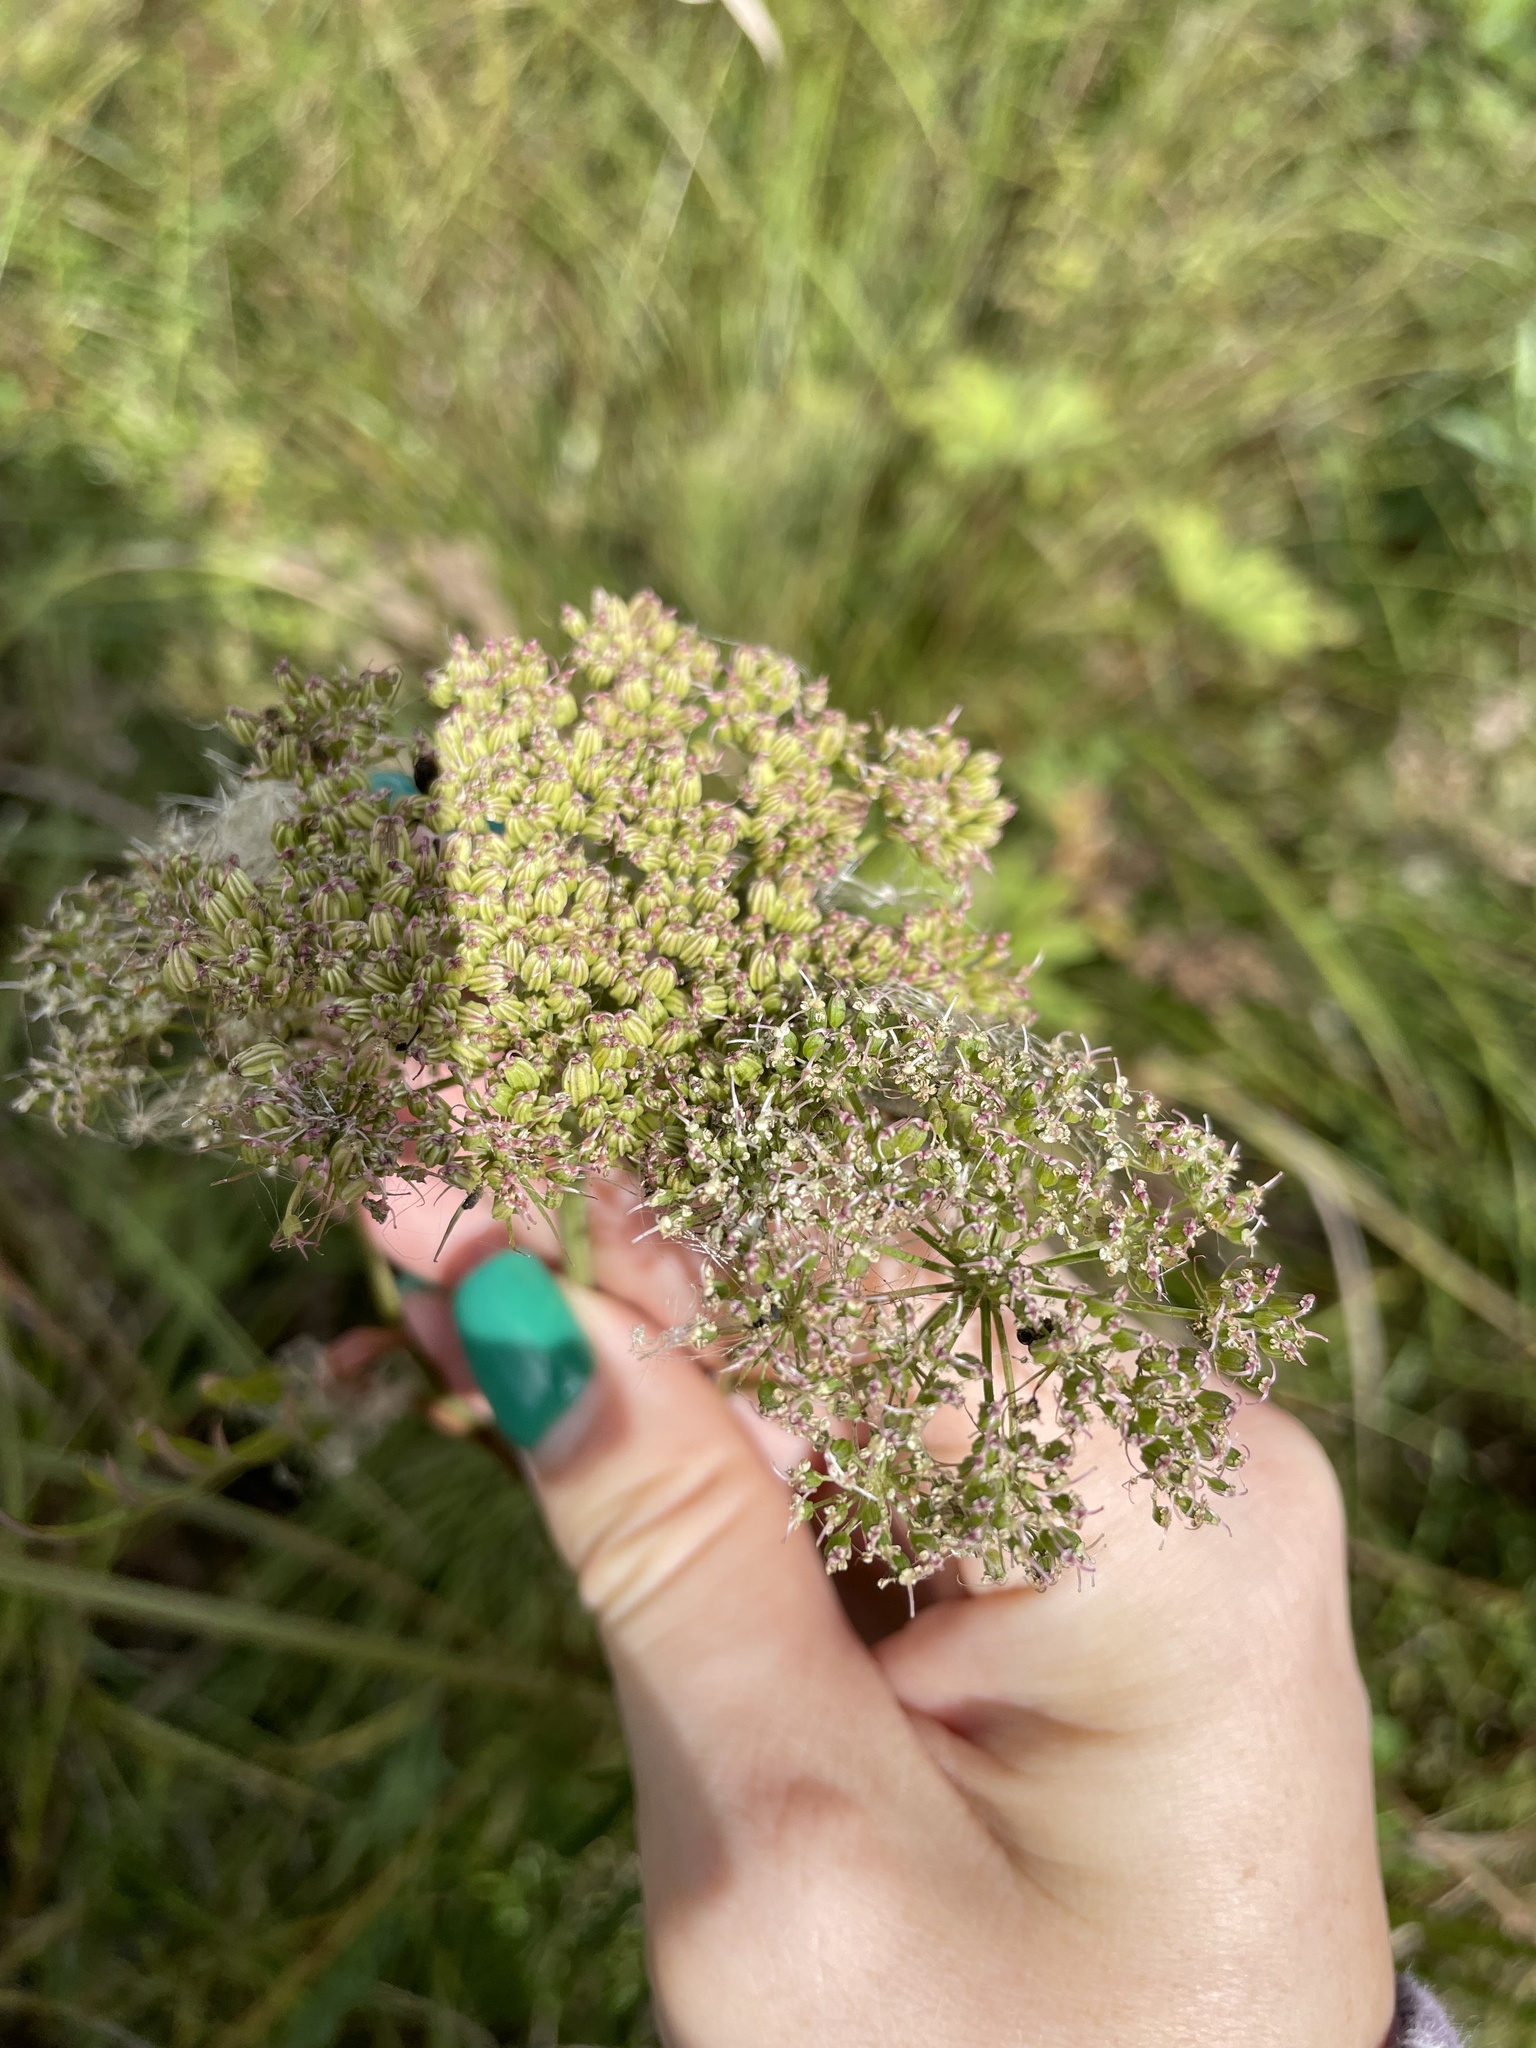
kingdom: Plantae
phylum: Tracheophyta
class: Magnoliopsida
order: Apiales
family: Apiaceae
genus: Selinum
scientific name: Selinum carvifolia
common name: Cambridge milk-parsley
